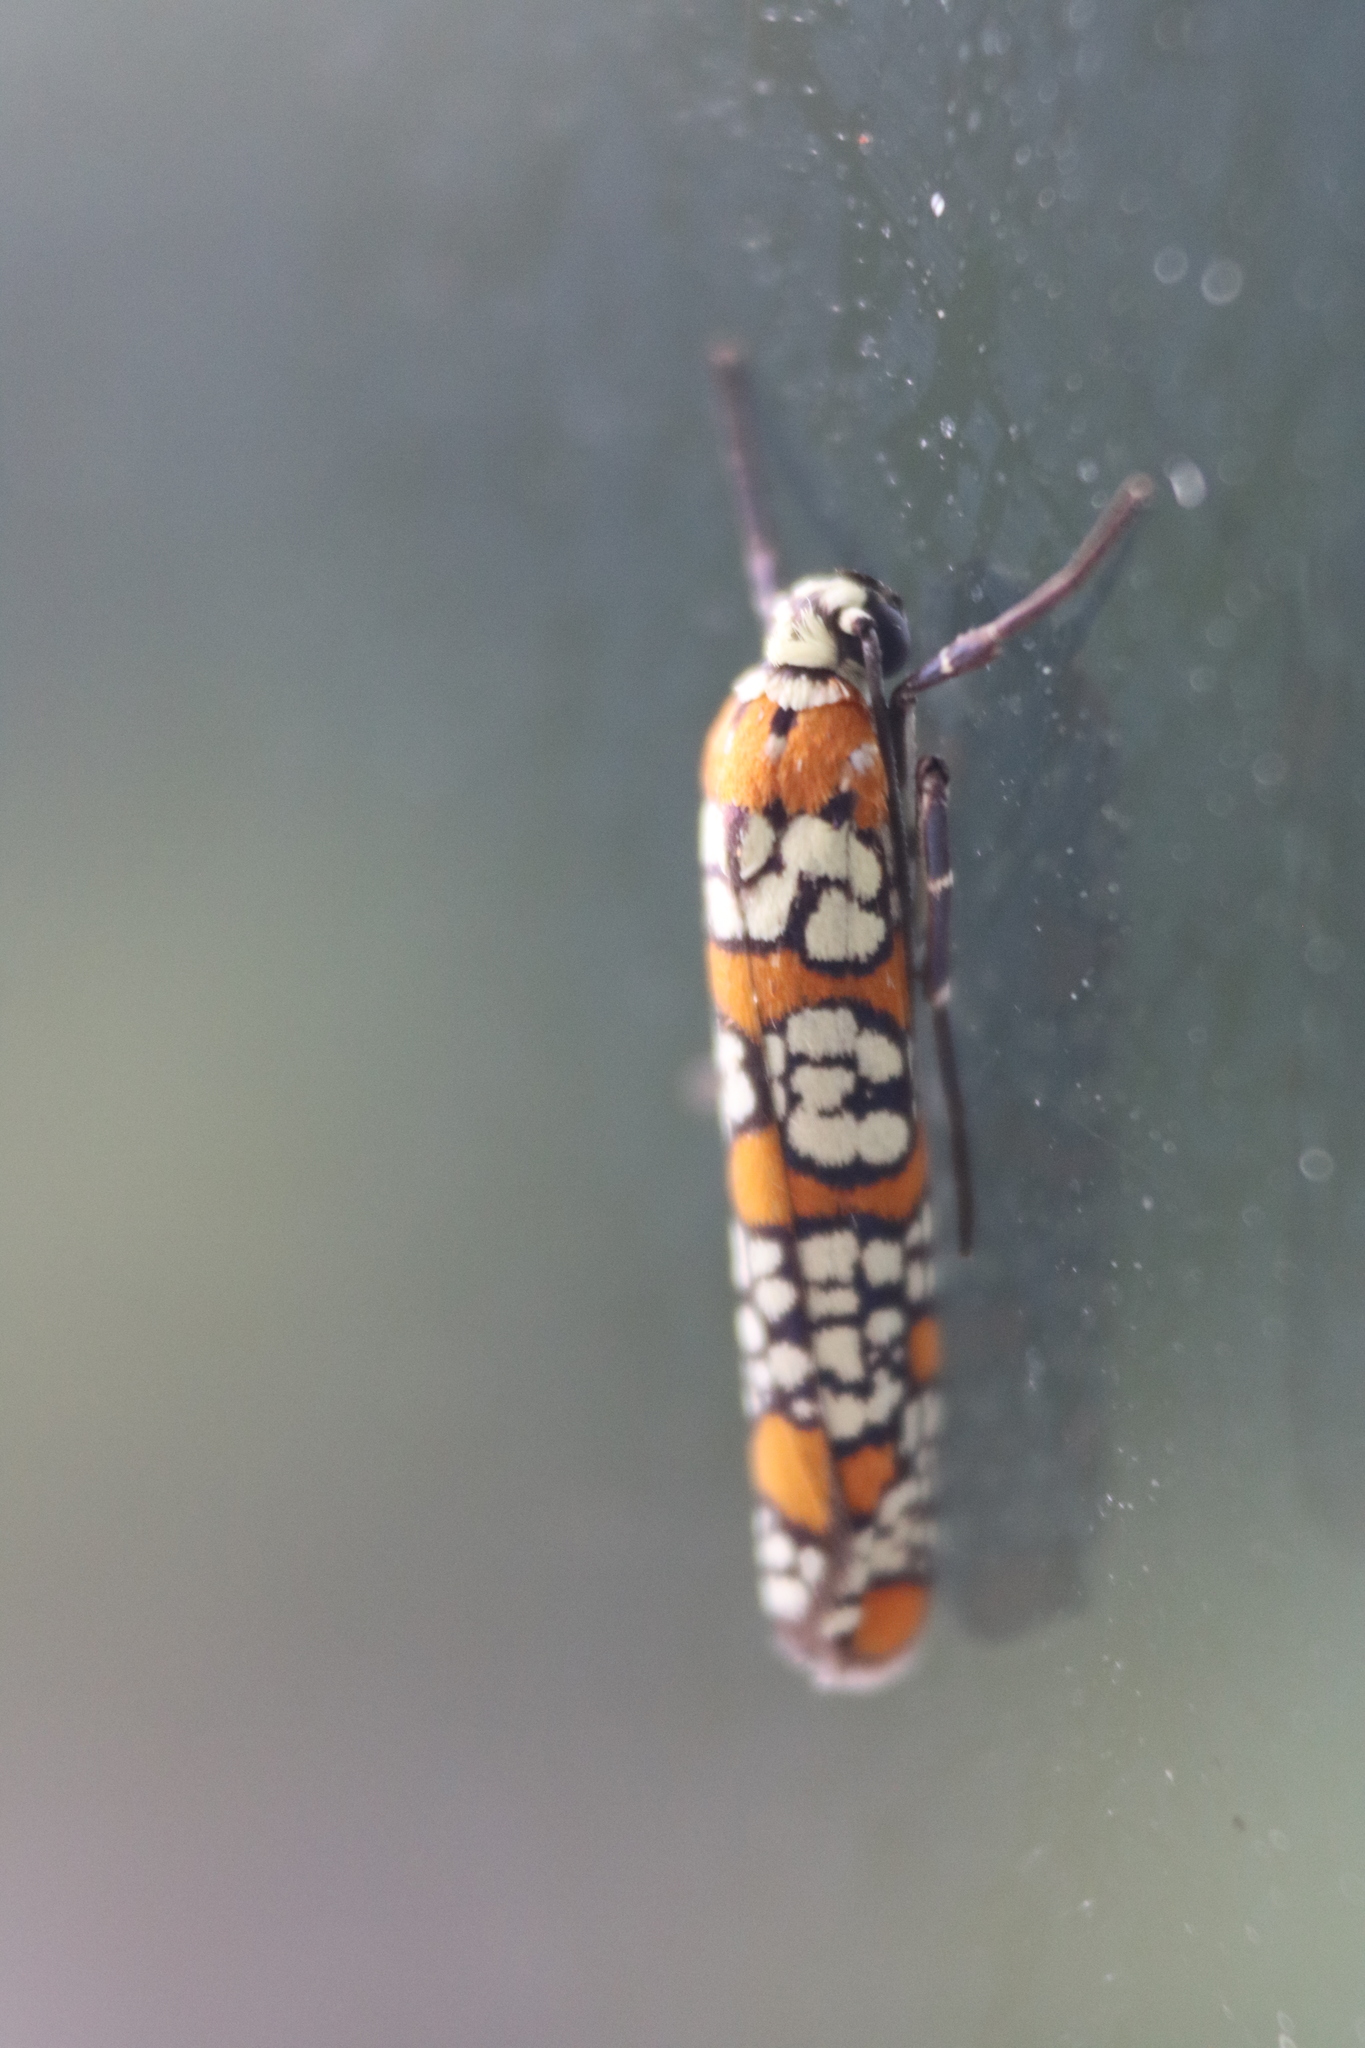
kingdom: Animalia
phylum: Arthropoda
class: Insecta
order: Lepidoptera
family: Attevidae
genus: Atteva
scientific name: Atteva punctella
